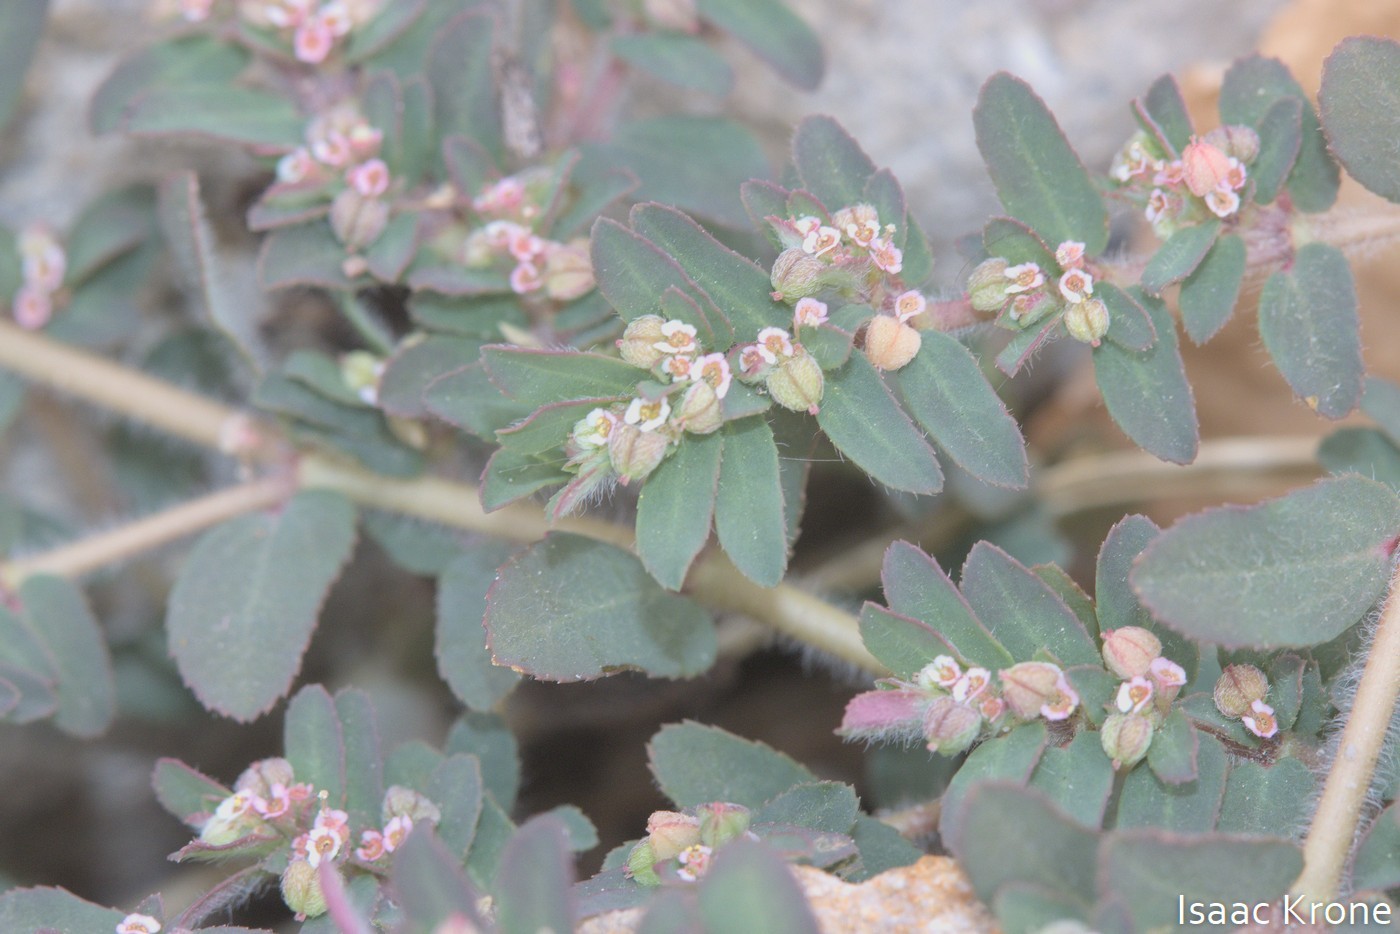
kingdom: Plantae
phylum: Tracheophyta
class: Magnoliopsida
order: Malpighiales
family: Euphorbiaceae
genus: Euphorbia
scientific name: Euphorbia maculata
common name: Spotted spurge
